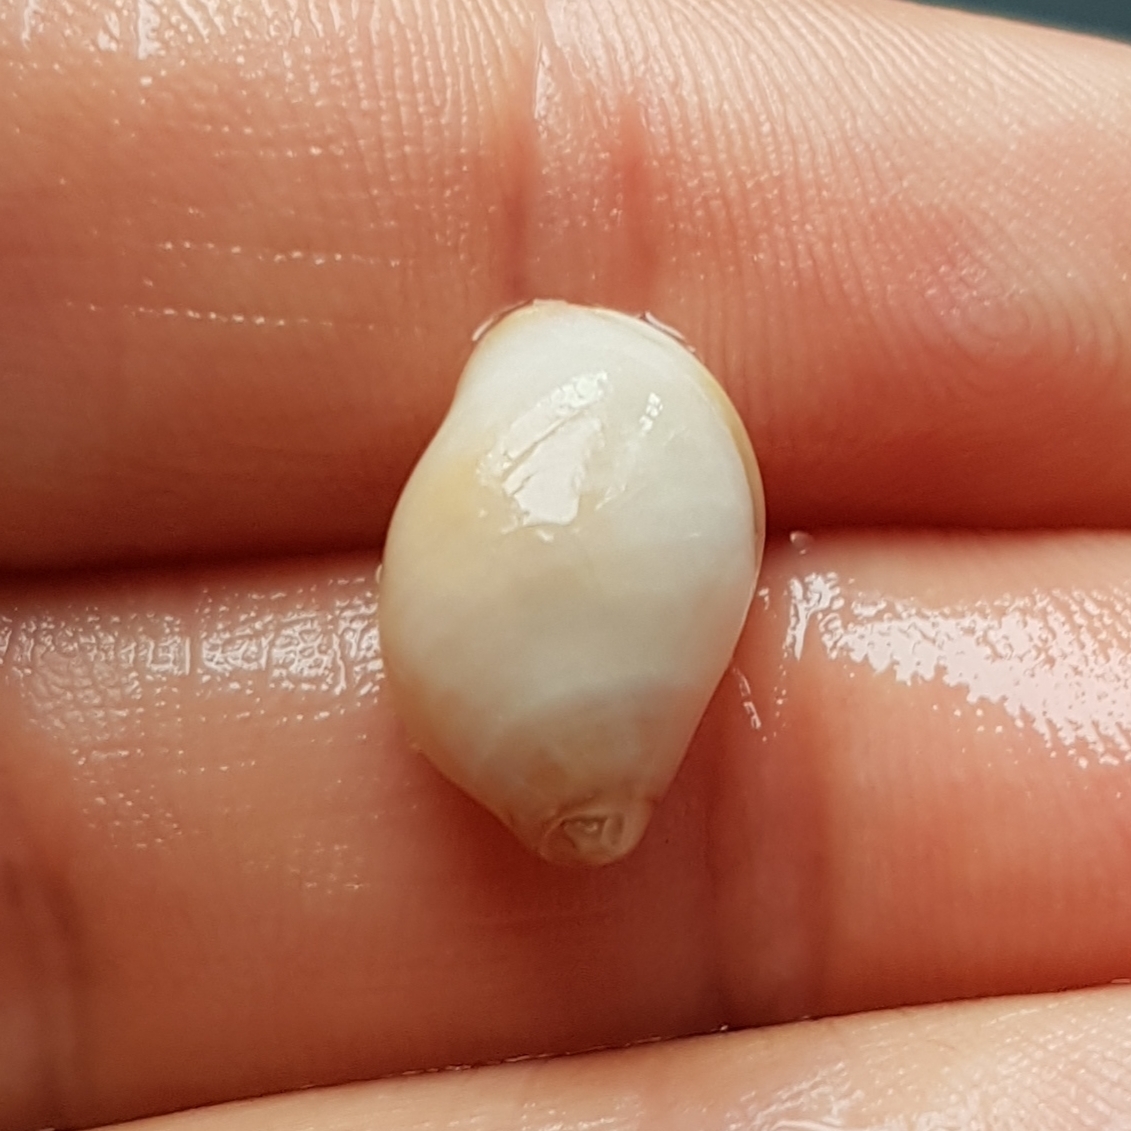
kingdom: Animalia
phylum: Mollusca
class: Gastropoda
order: Neogastropoda
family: Muricidae
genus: Nucella
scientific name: Nucella lapillus
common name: Dog whelk
